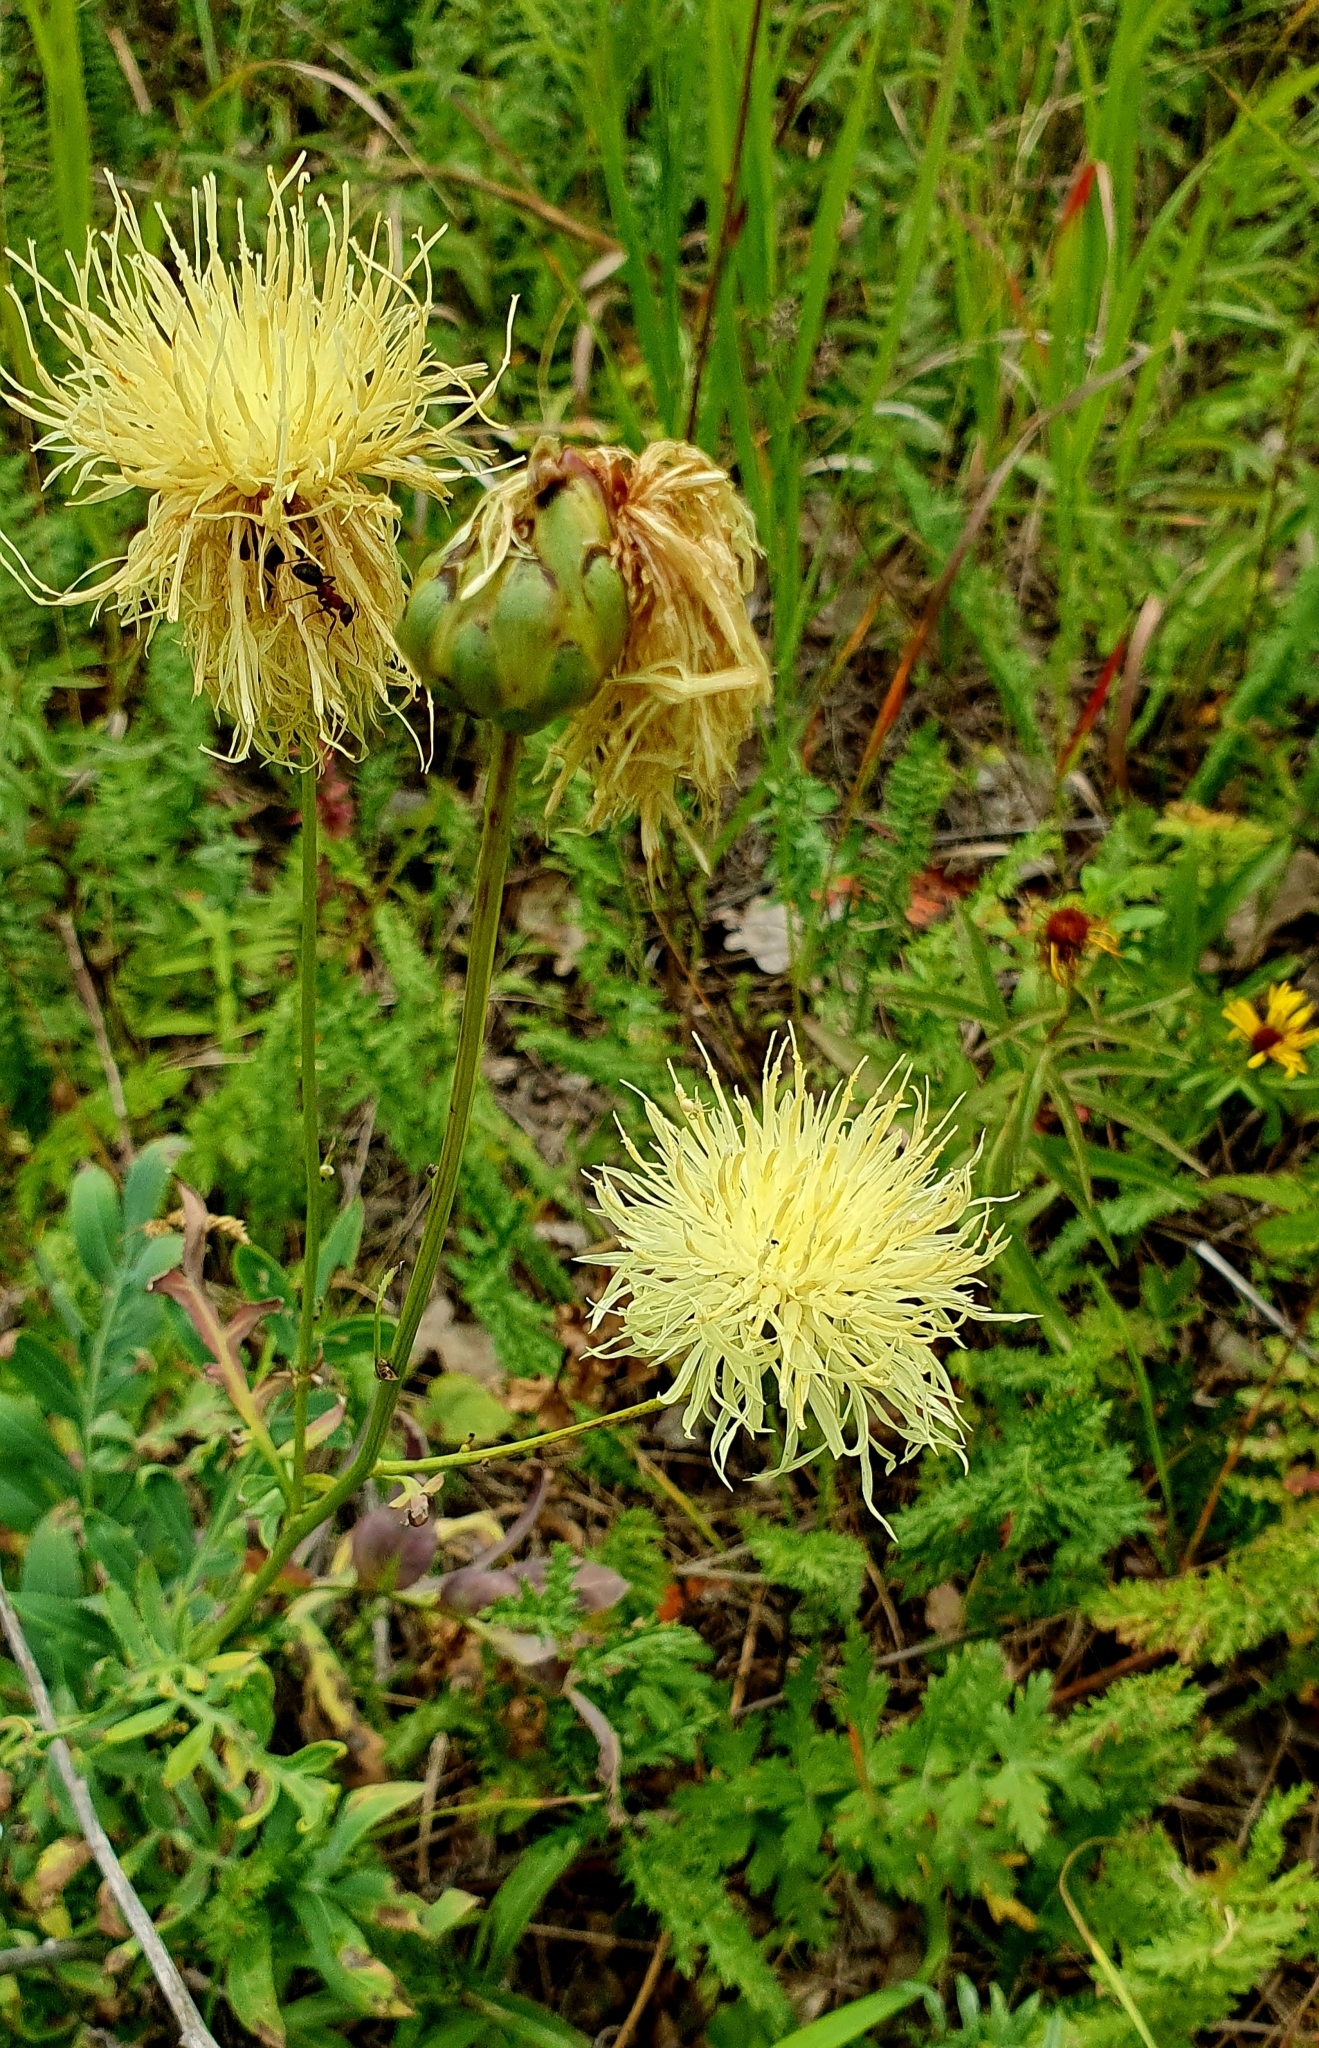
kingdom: Plantae
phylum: Tracheophyta
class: Magnoliopsida
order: Asterales
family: Asteraceae
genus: Rhaponticoides
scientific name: Rhaponticoides ruthenica
